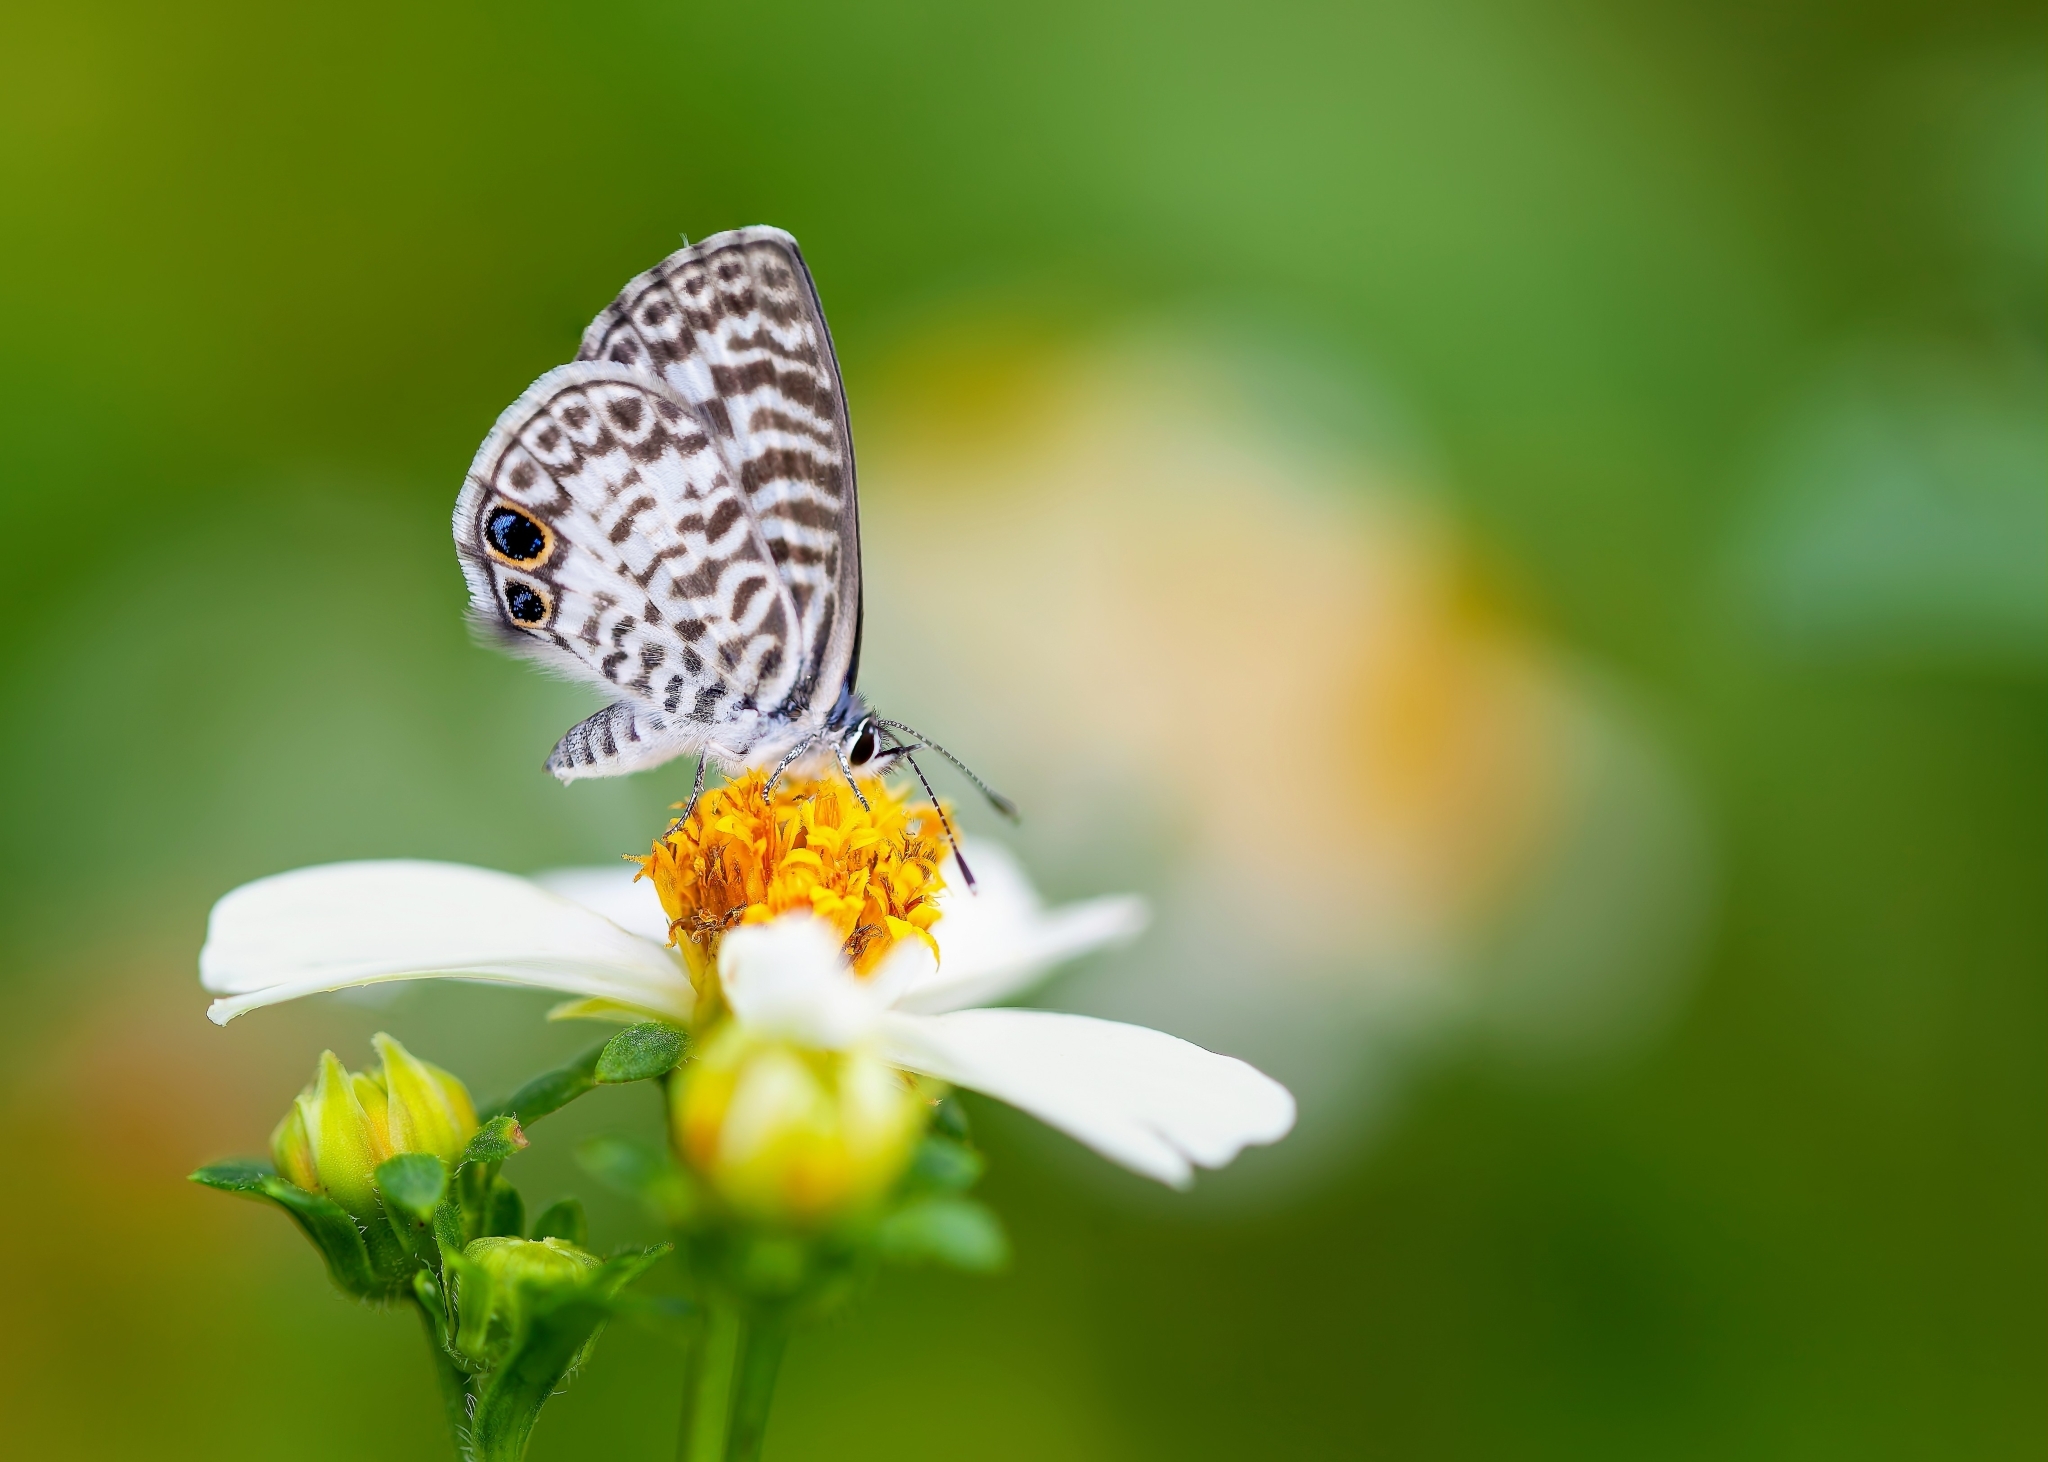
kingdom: Animalia
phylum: Arthropoda
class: Insecta
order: Lepidoptera
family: Lycaenidae
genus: Leptotes
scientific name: Leptotes cassius
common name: Cassius blue
